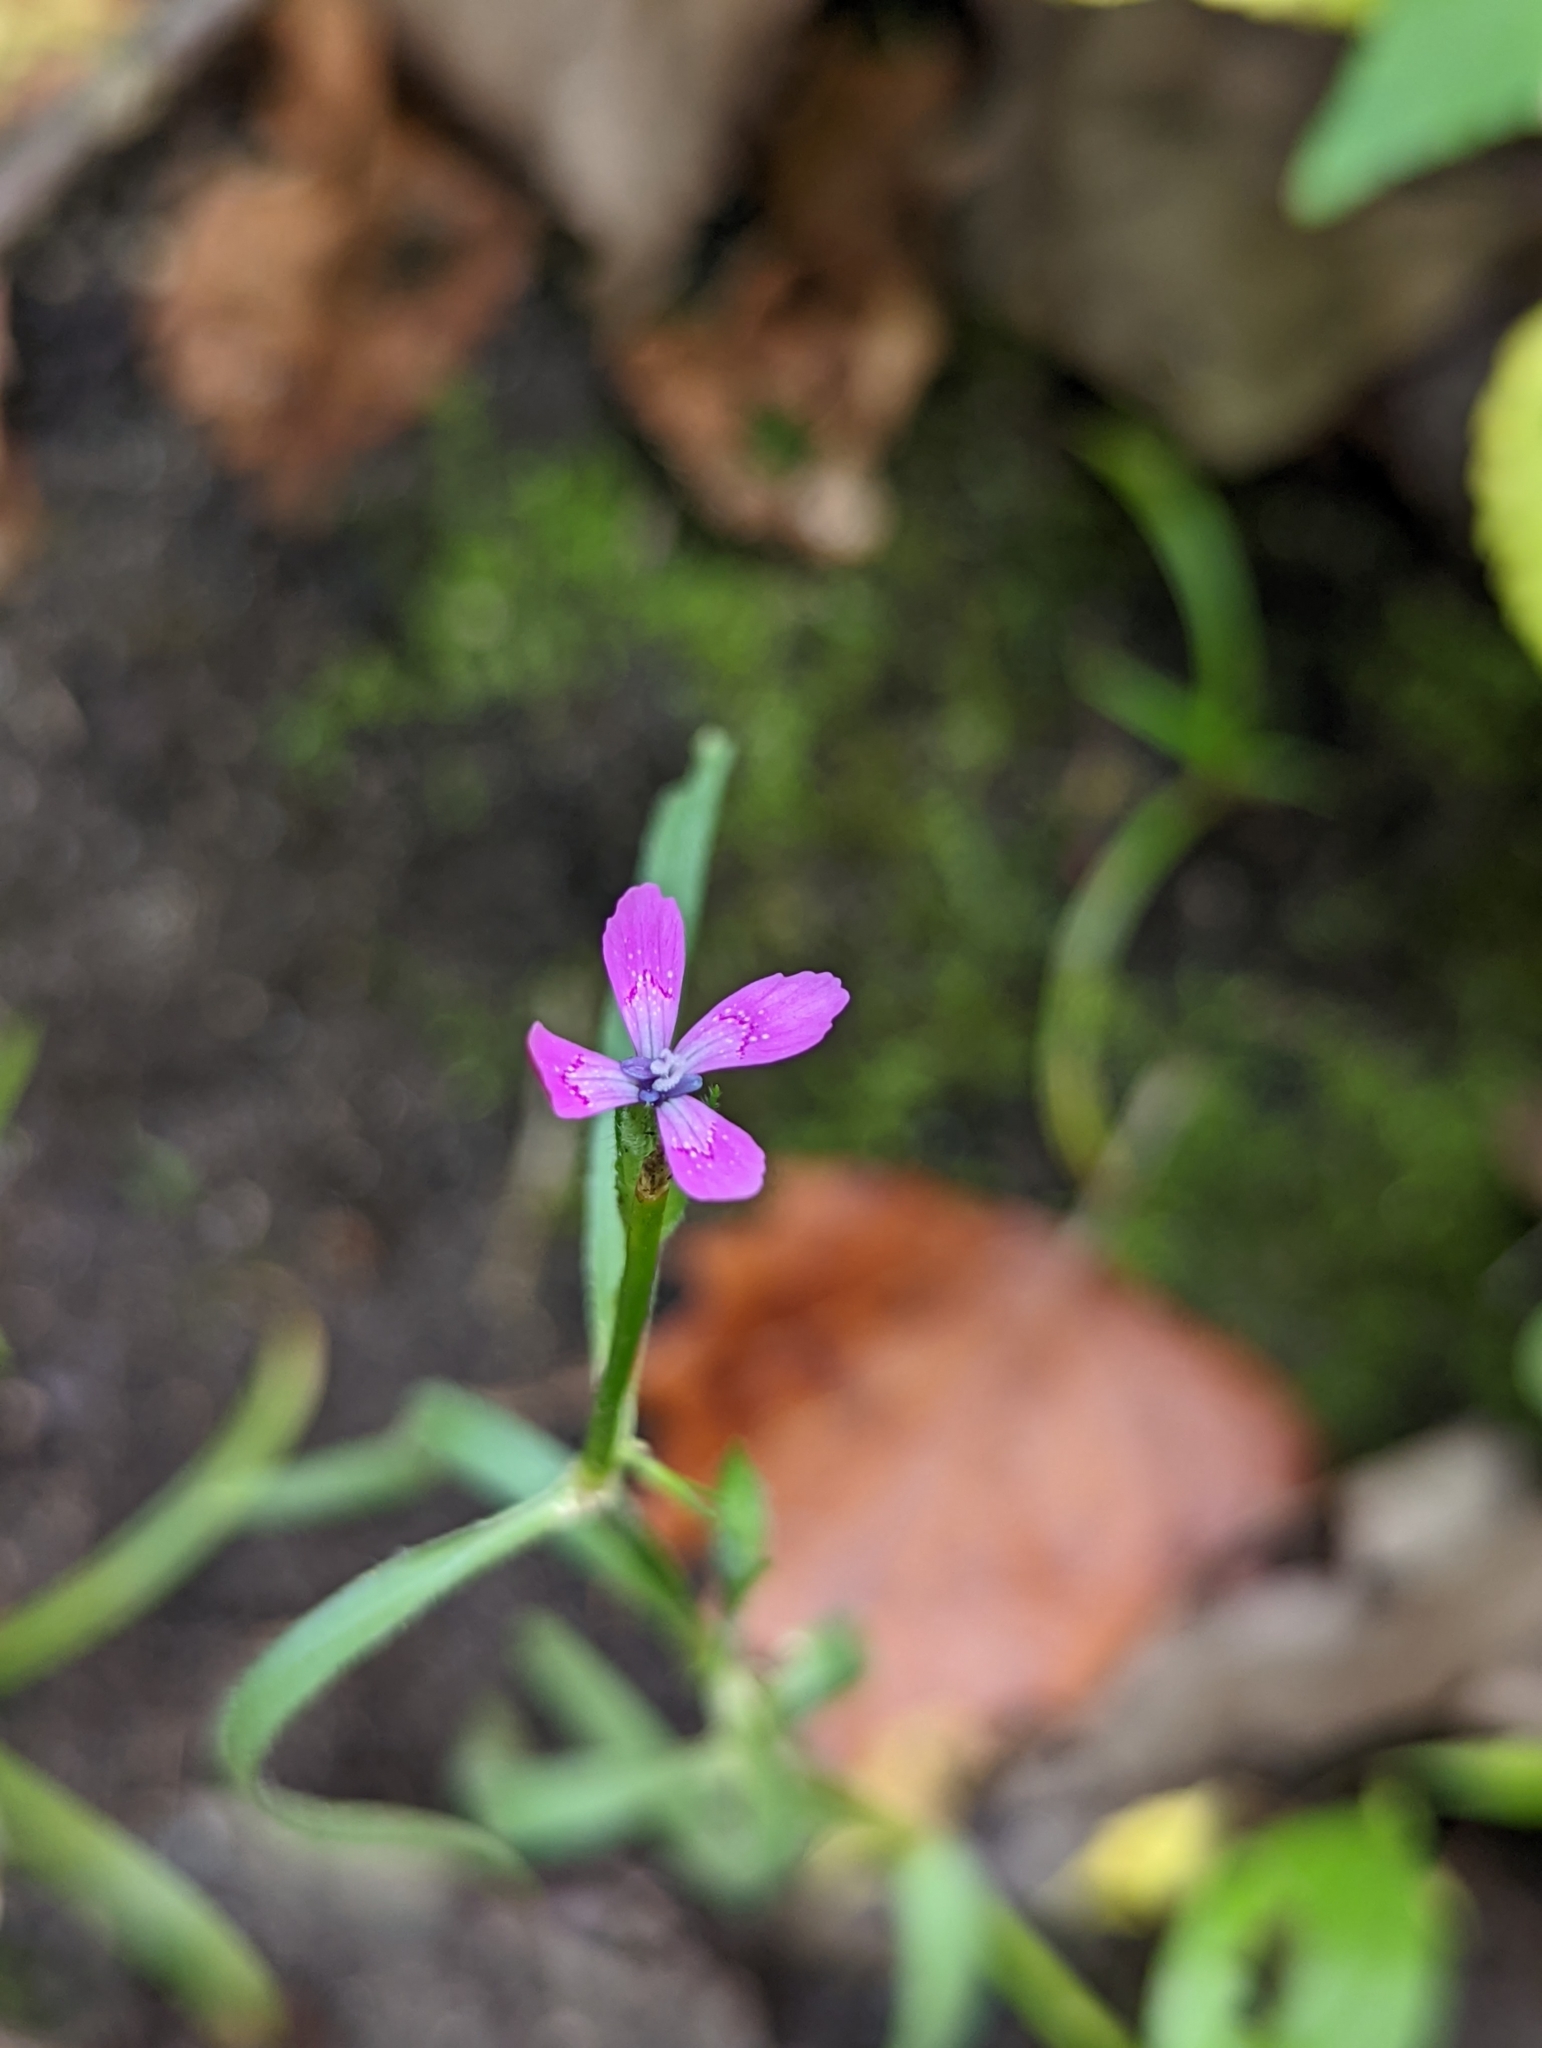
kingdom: Plantae
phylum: Tracheophyta
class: Magnoliopsida
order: Caryophyllales
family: Caryophyllaceae
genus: Dianthus
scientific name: Dianthus armeria
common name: Deptford pink
